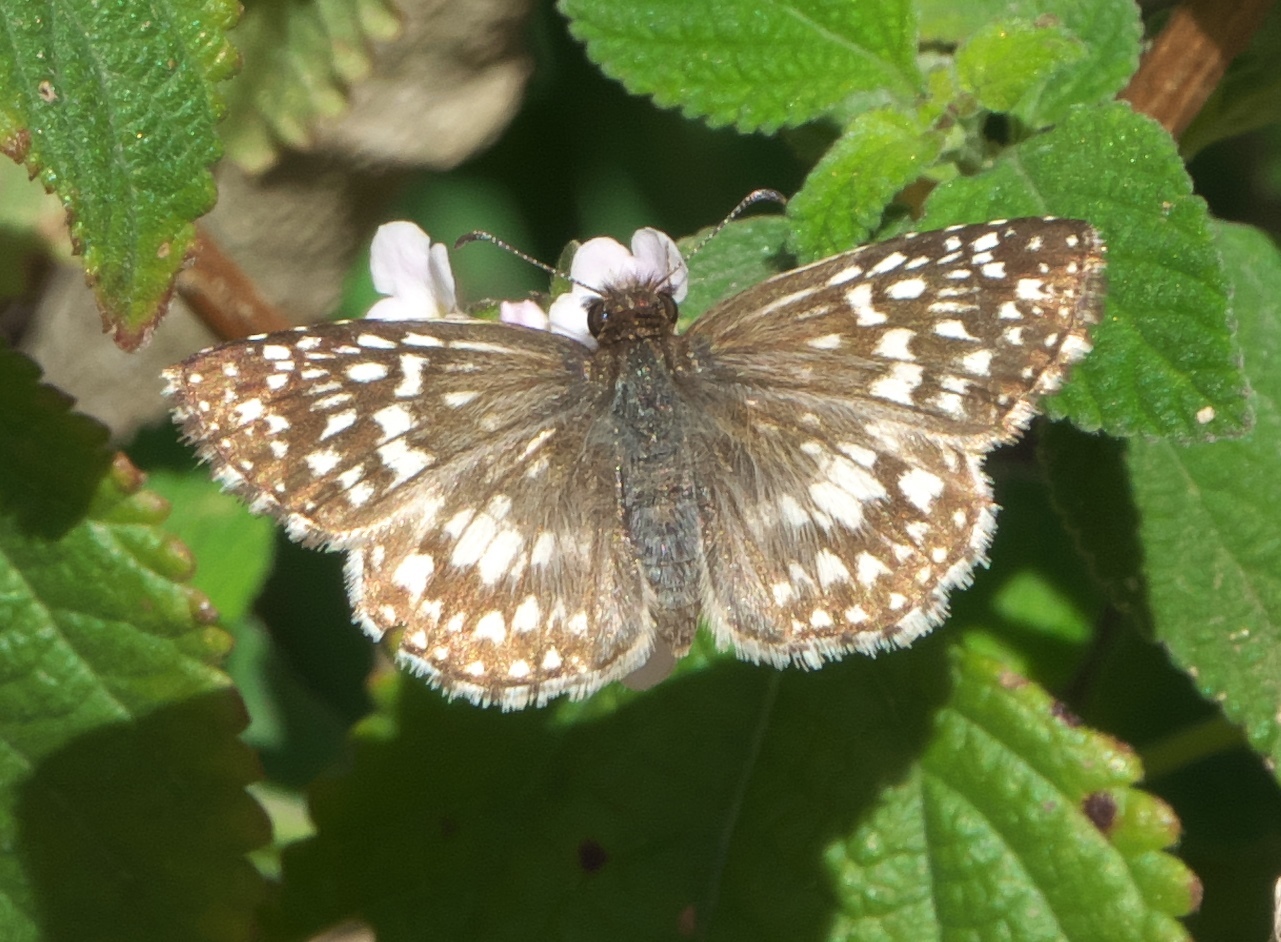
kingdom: Animalia
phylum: Arthropoda
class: Insecta
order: Lepidoptera
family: Hesperiidae
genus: Pyrgus
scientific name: Pyrgus oileus
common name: Tropical checkered-skipper
